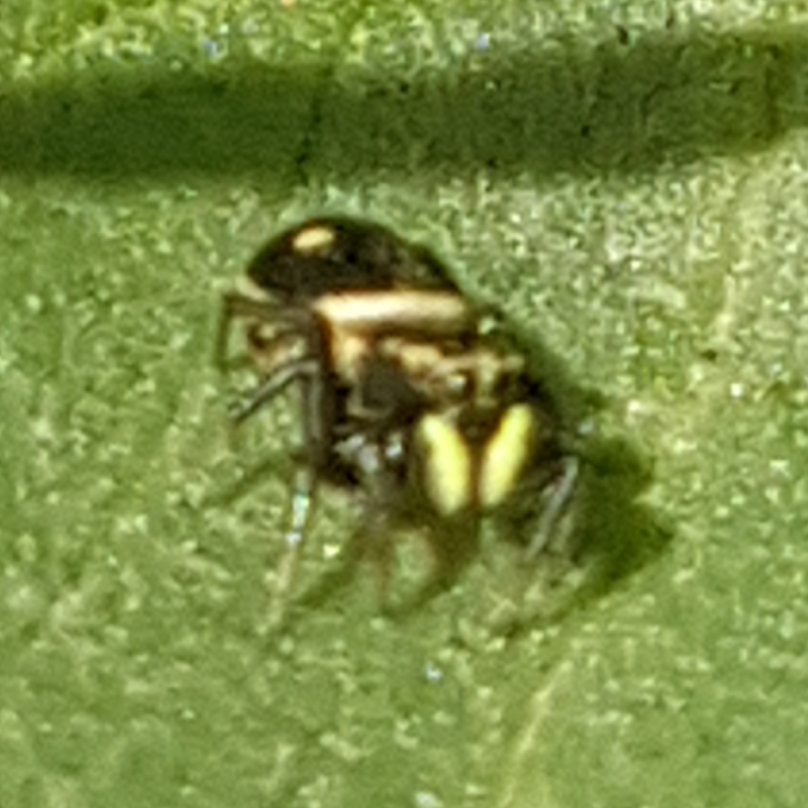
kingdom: Animalia
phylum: Arthropoda
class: Arachnida
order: Araneae
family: Salticidae
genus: Heliophanus
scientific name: Heliophanus apiatus
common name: Sun jumping spider
